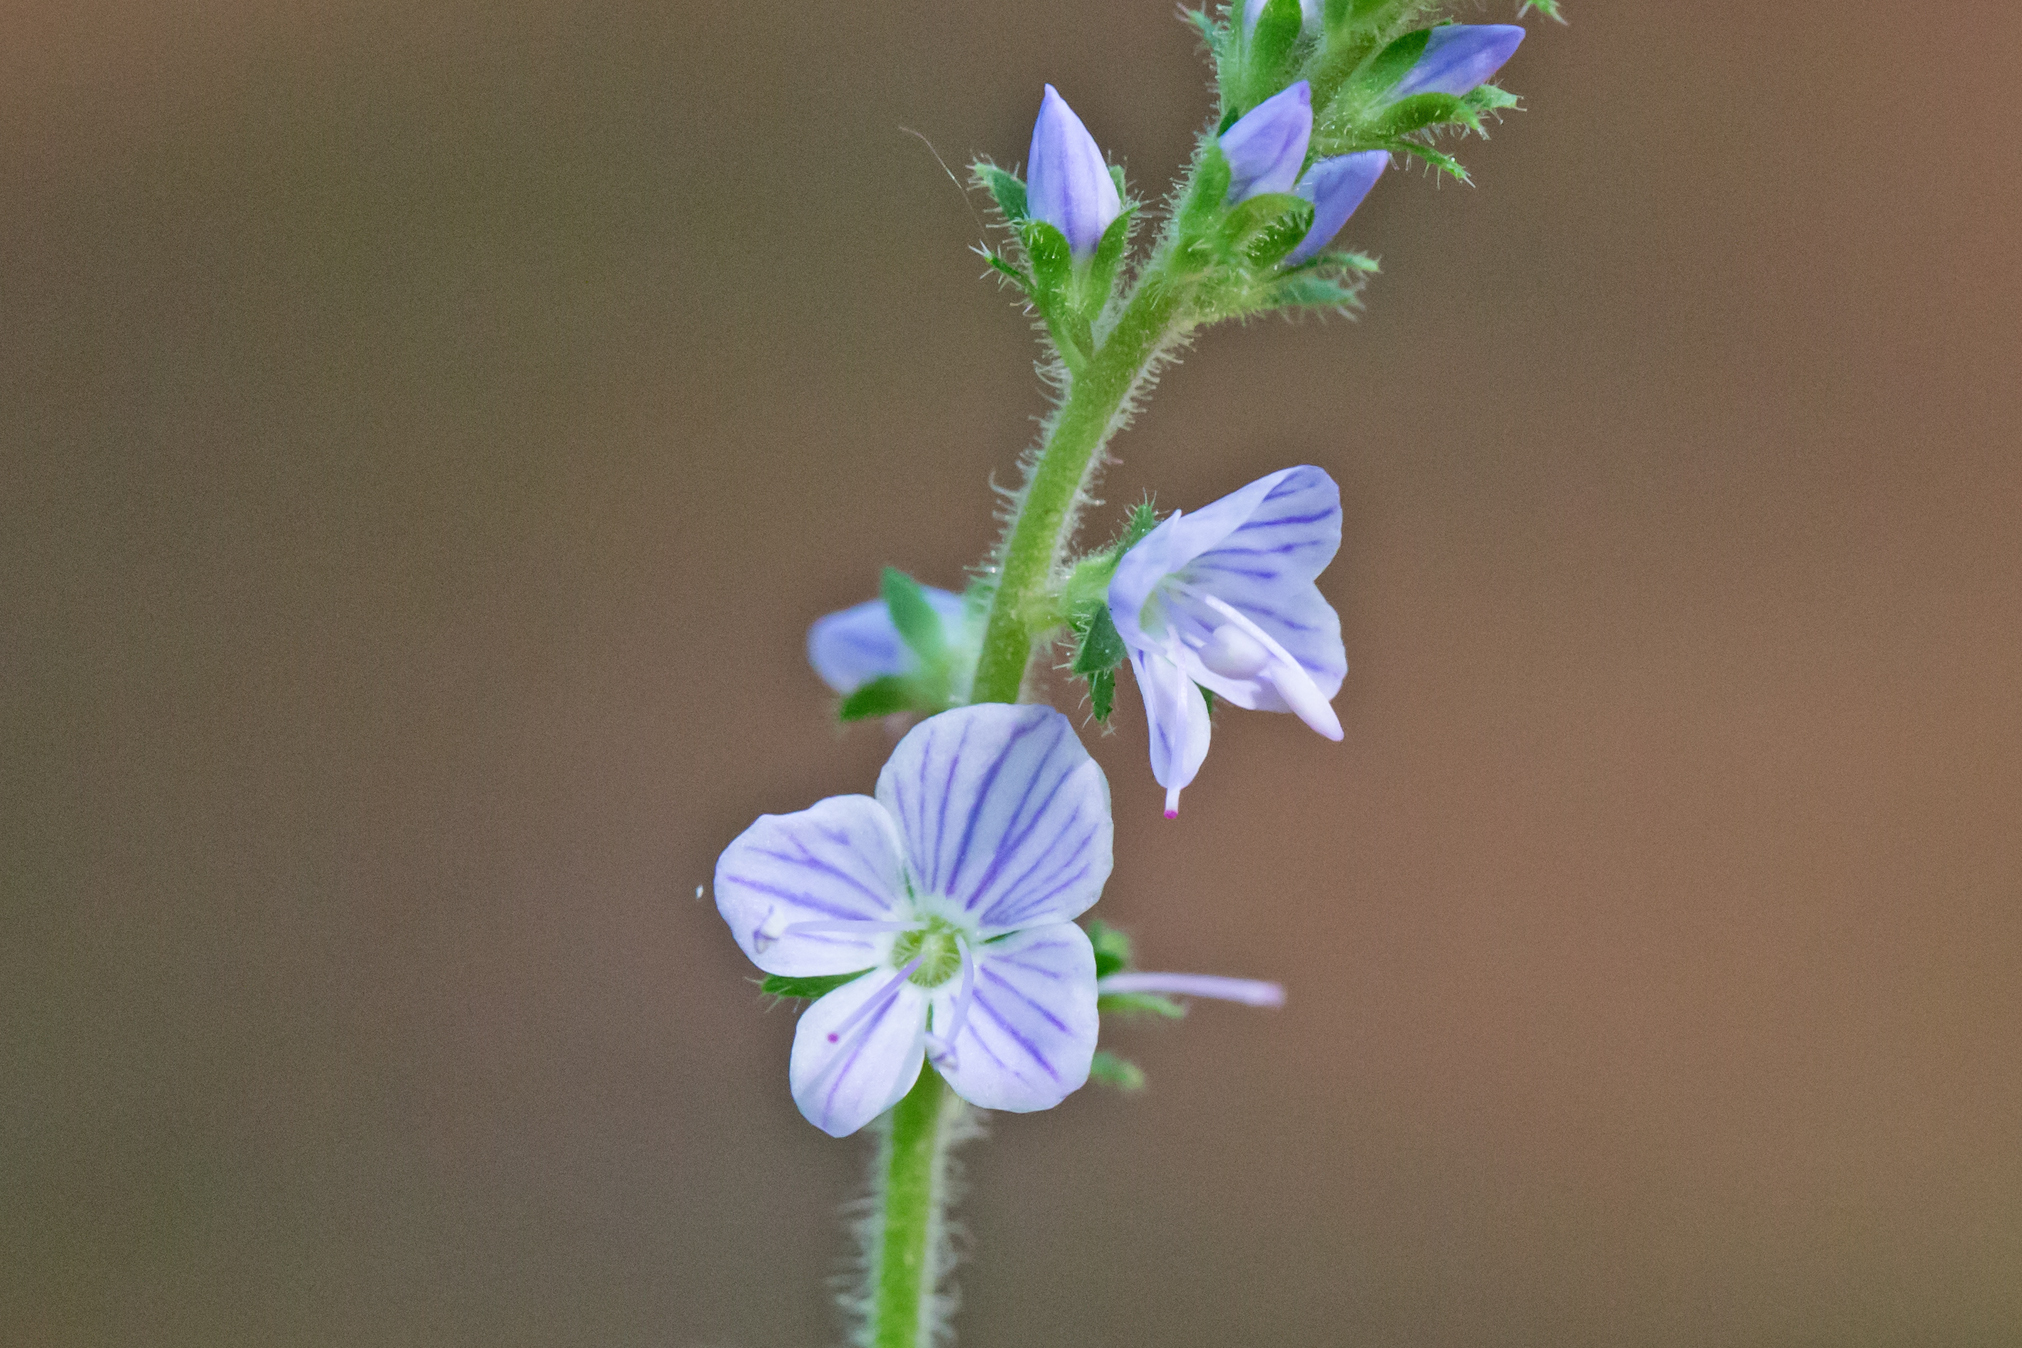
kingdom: Plantae
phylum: Tracheophyta
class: Magnoliopsida
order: Lamiales
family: Plantaginaceae
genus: Veronica
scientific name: Veronica officinalis
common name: Common speedwell
